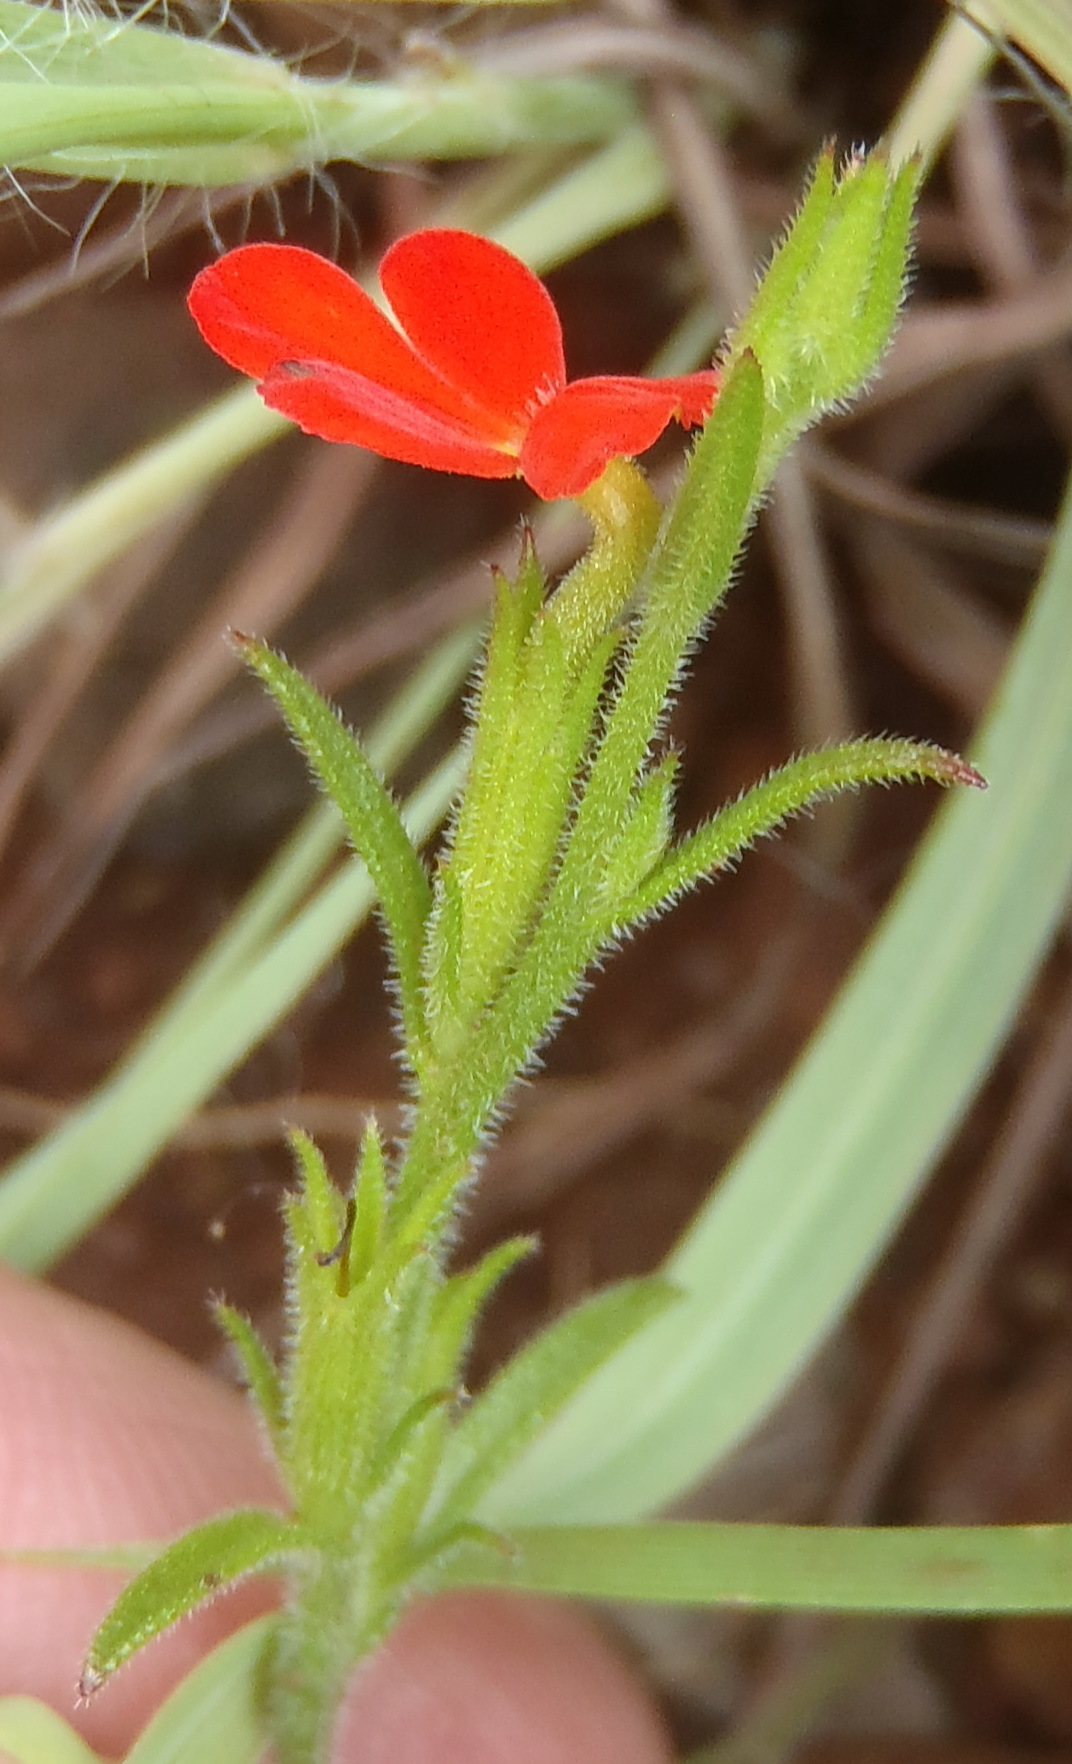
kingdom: Plantae
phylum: Tracheophyta
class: Magnoliopsida
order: Lamiales
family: Orobanchaceae
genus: Striga
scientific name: Striga elegans
